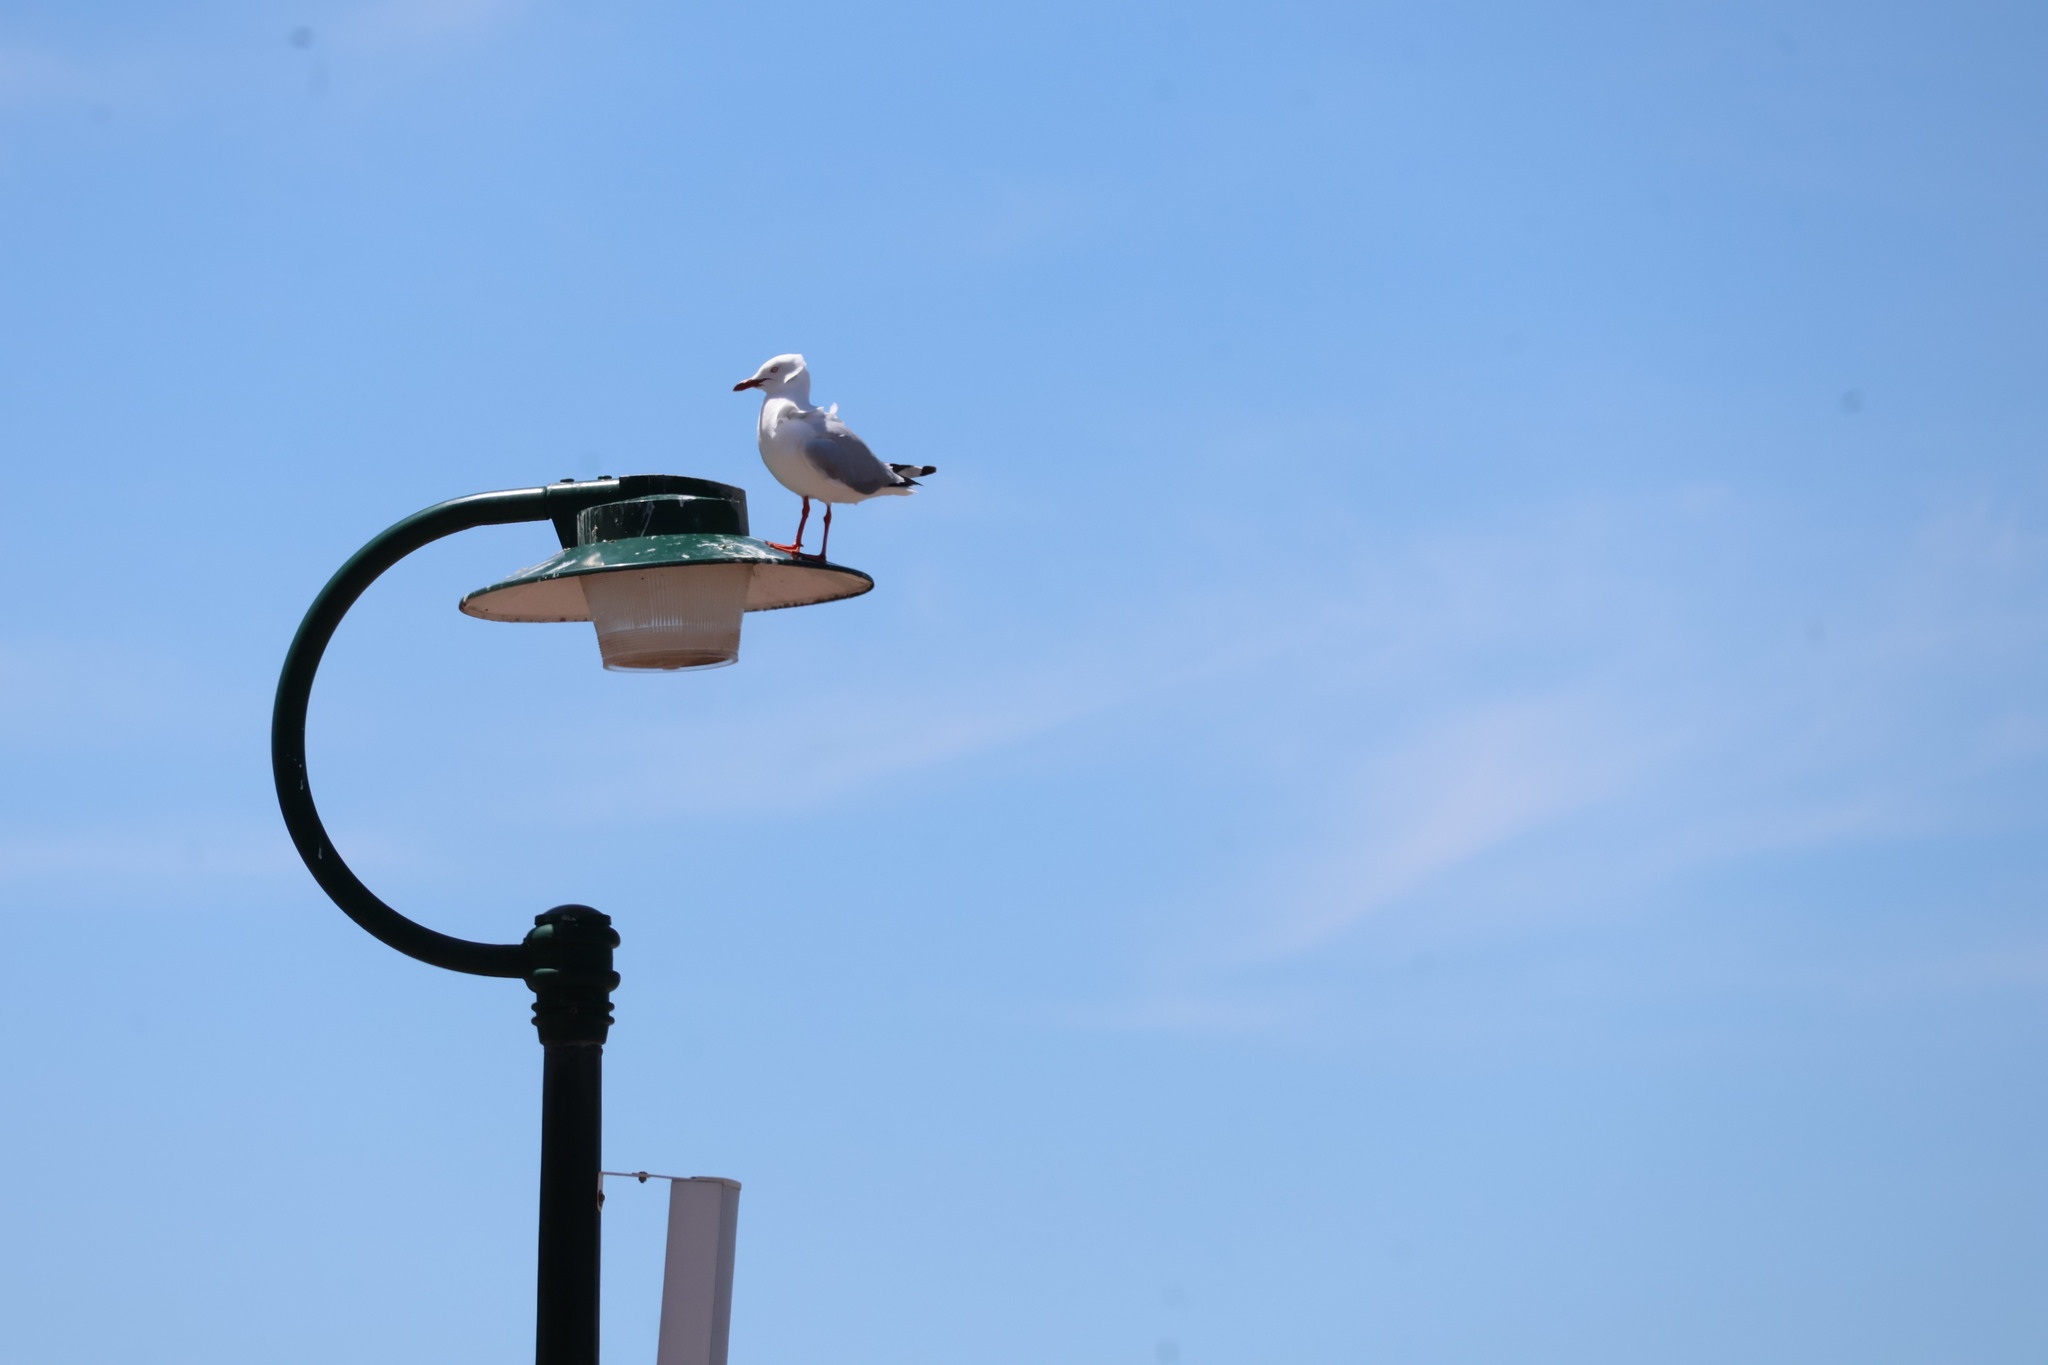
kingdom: Animalia
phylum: Chordata
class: Aves
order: Charadriiformes
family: Laridae
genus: Chroicocephalus
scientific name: Chroicocephalus novaehollandiae
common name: Silver gull
